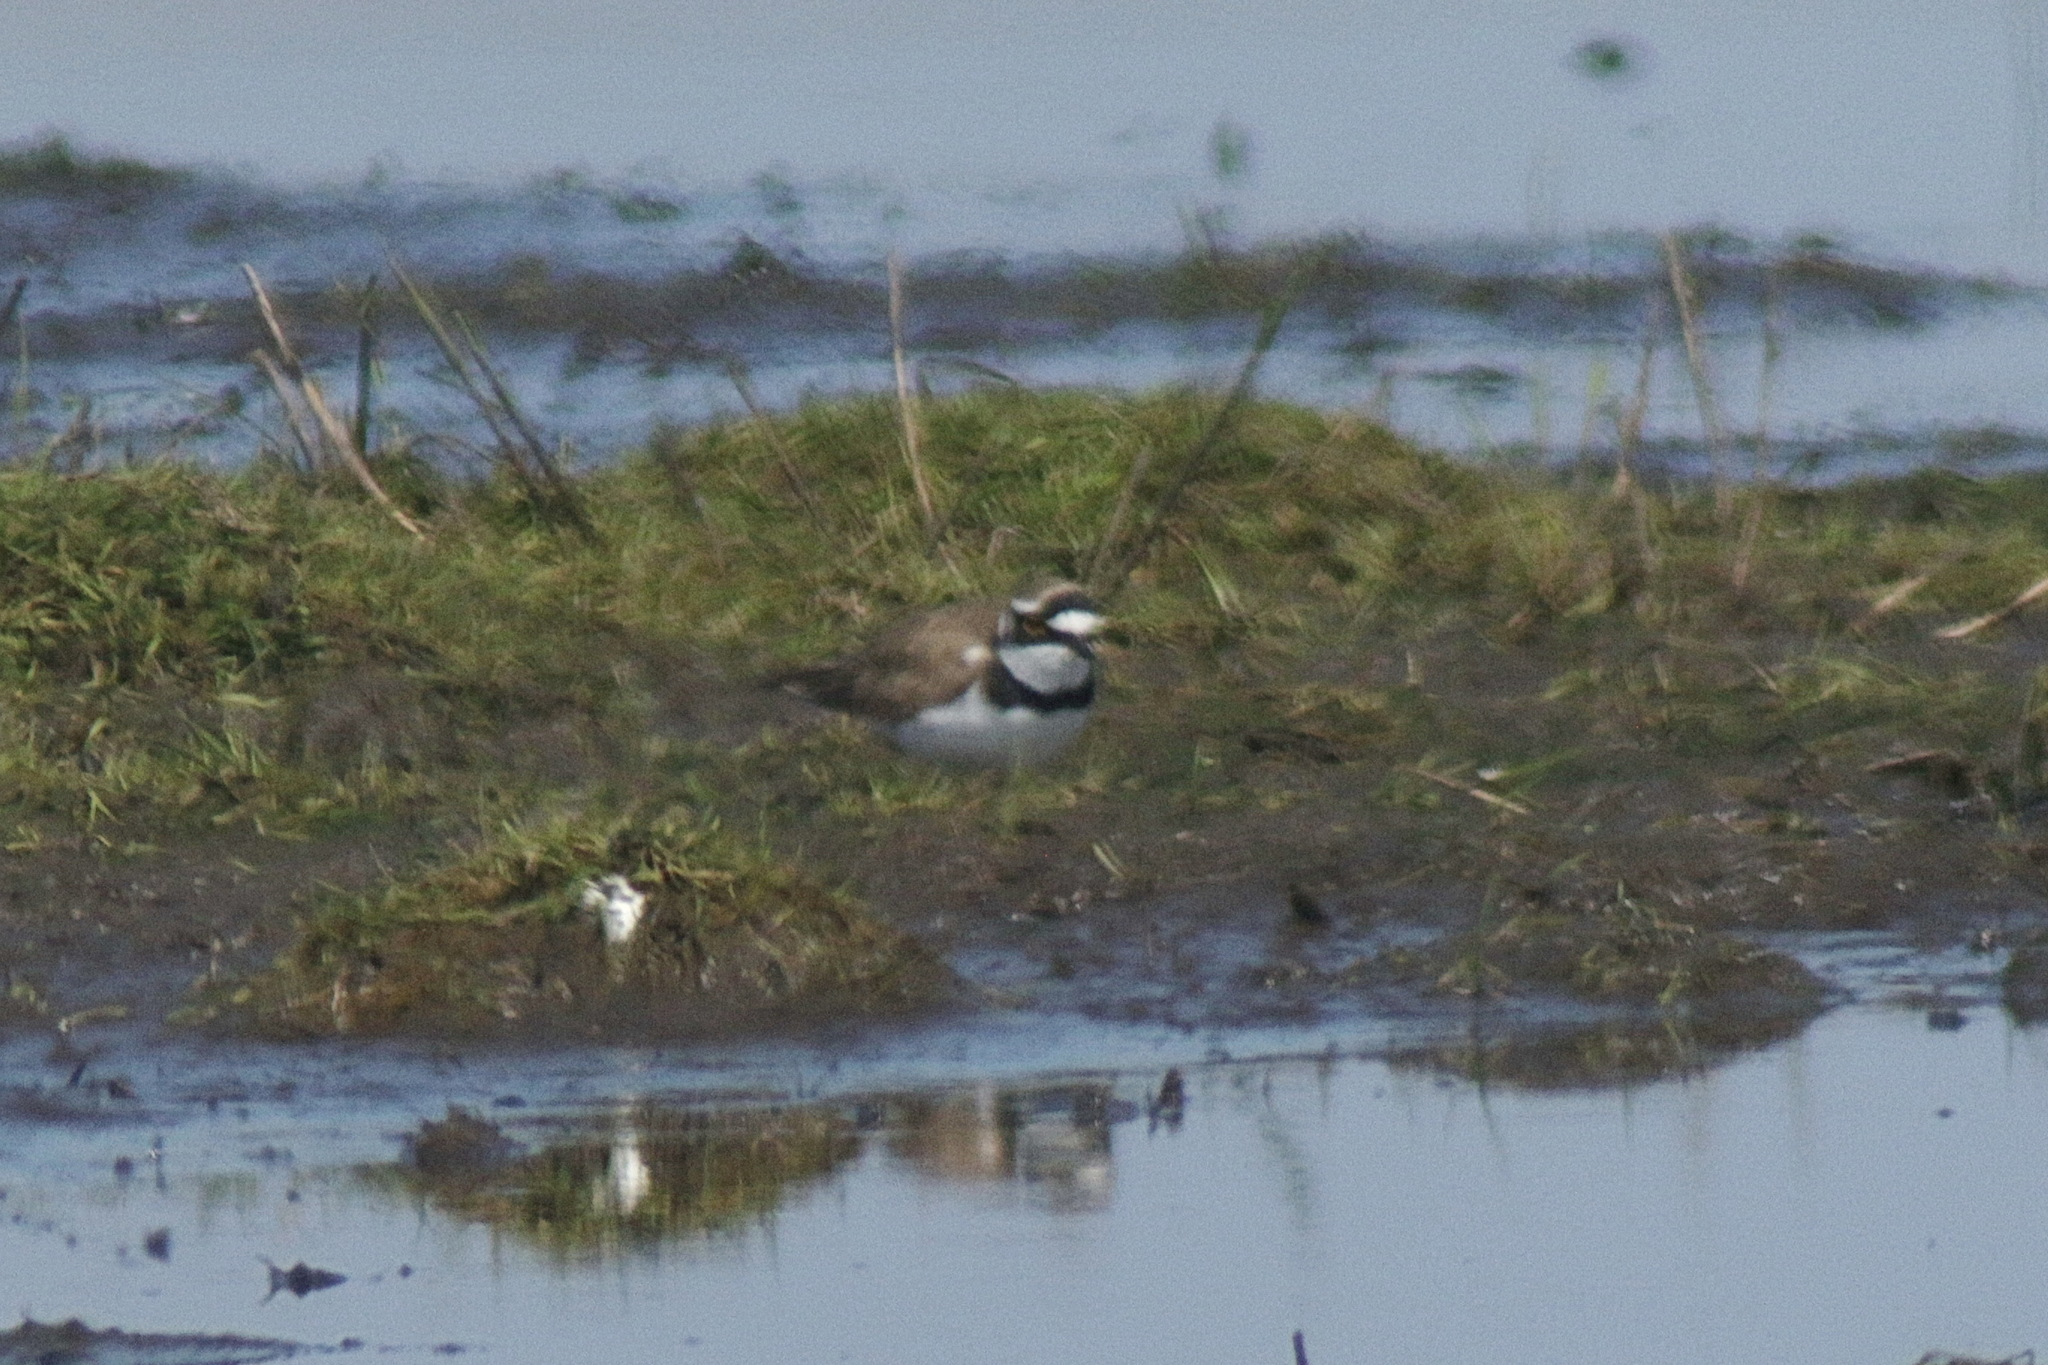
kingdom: Animalia
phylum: Chordata
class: Aves
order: Charadriiformes
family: Charadriidae
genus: Charadrius
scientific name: Charadrius dubius
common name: Little ringed plover
